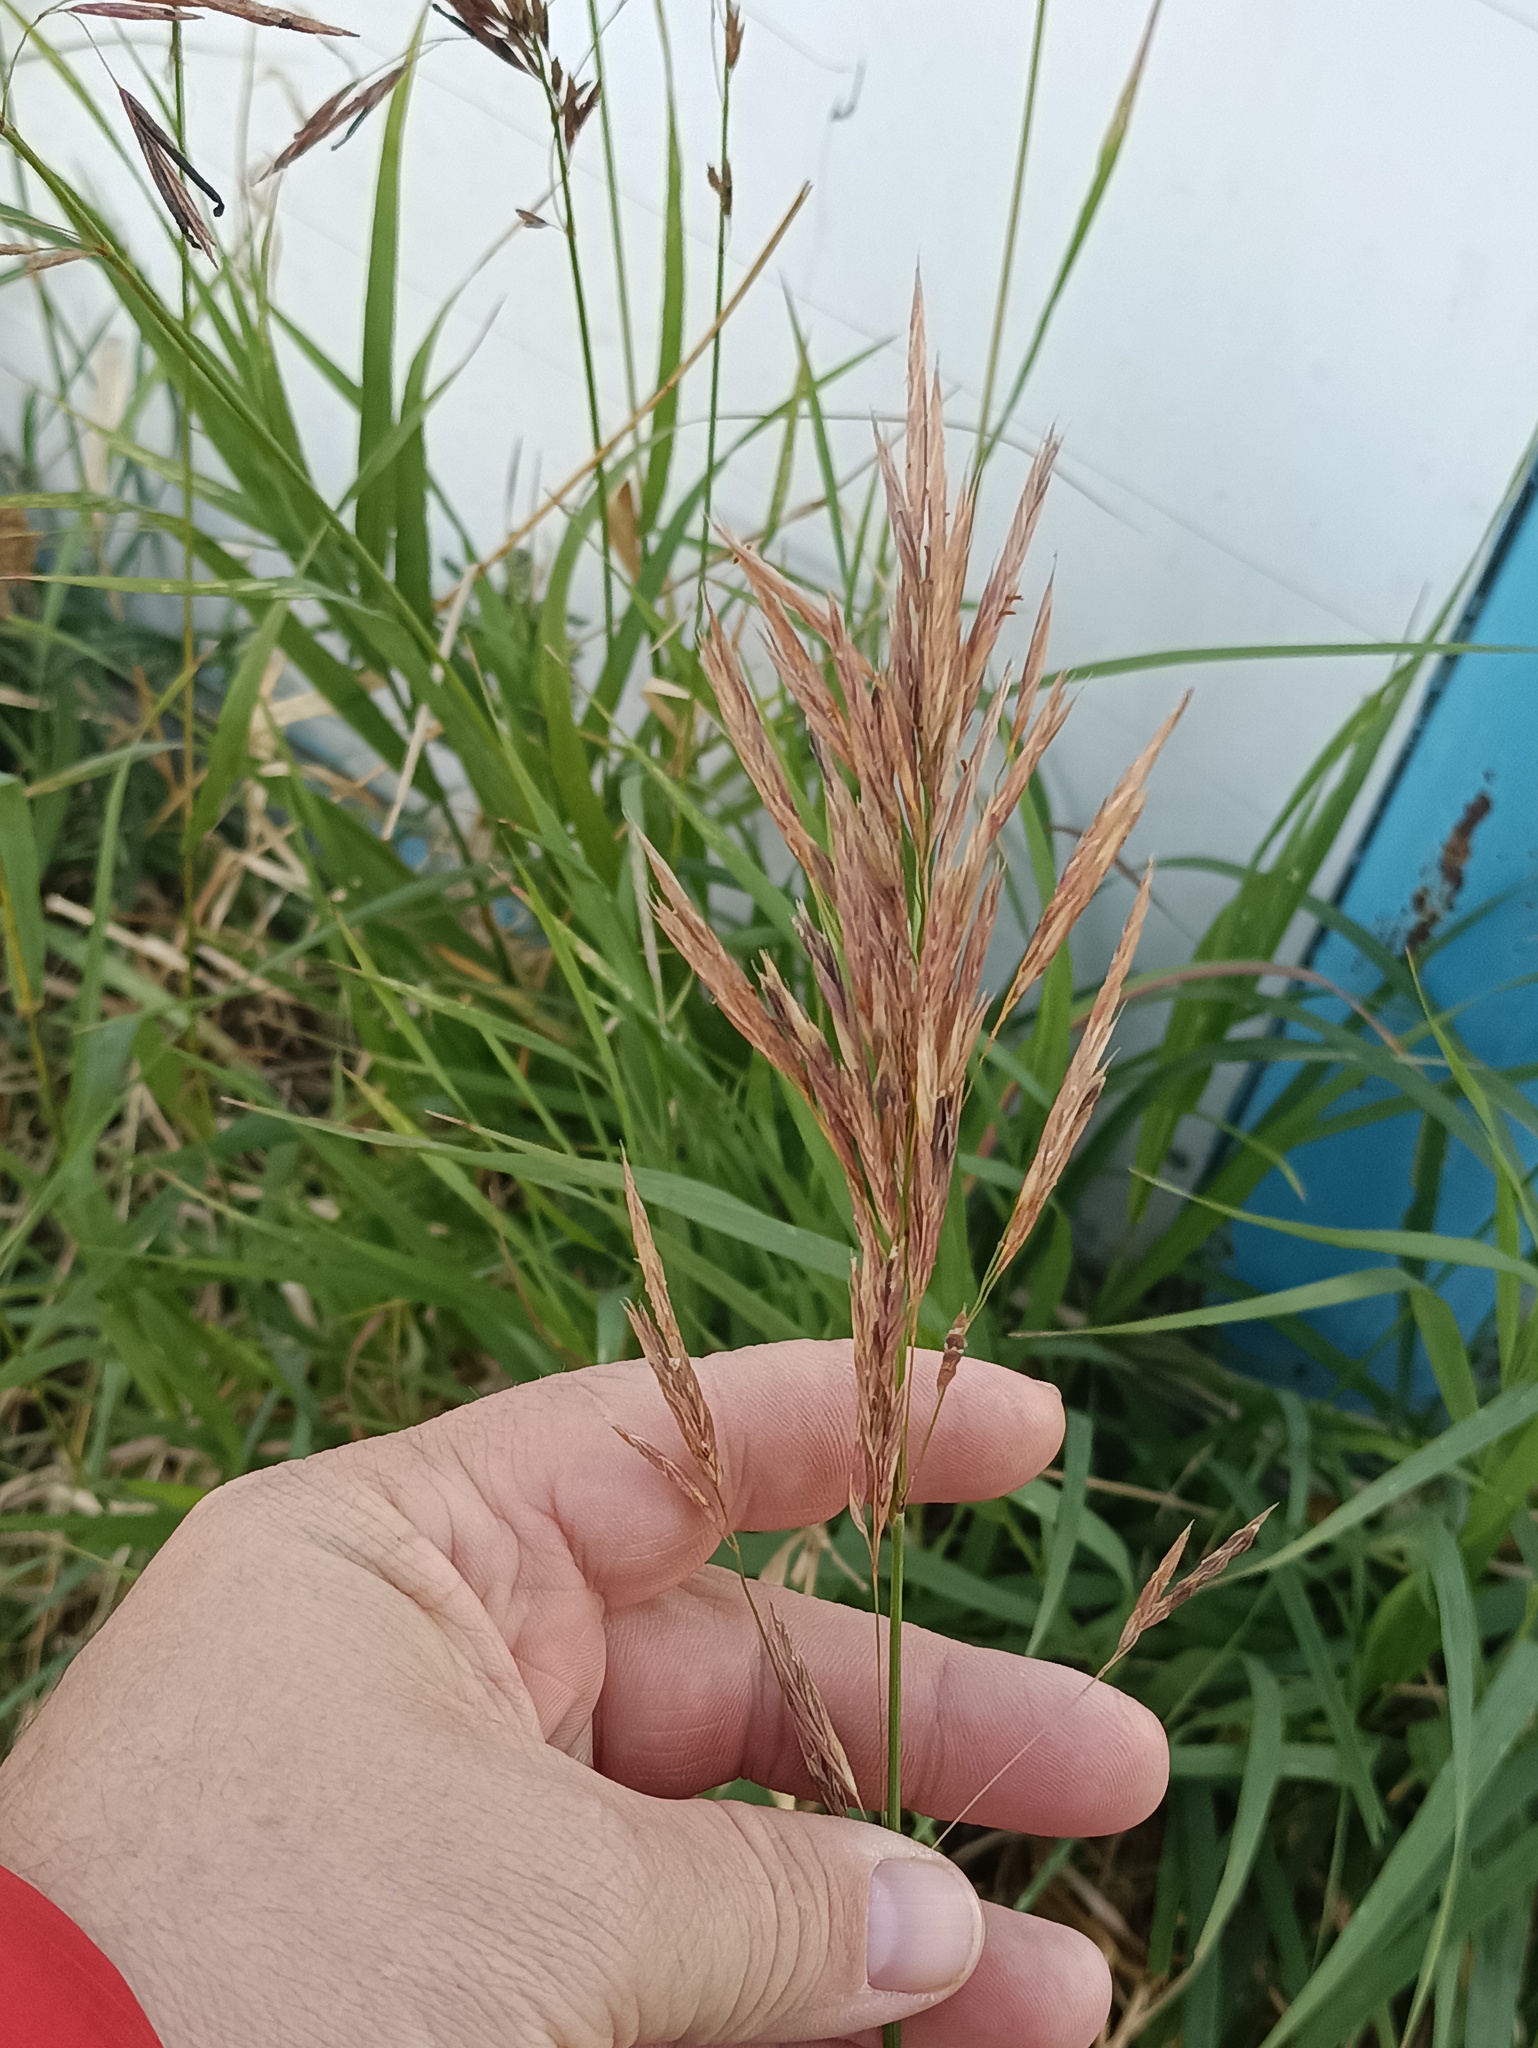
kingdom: Plantae
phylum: Tracheophyta
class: Liliopsida
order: Poales
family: Poaceae
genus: Bromus
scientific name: Bromus inermis
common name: Smooth brome
